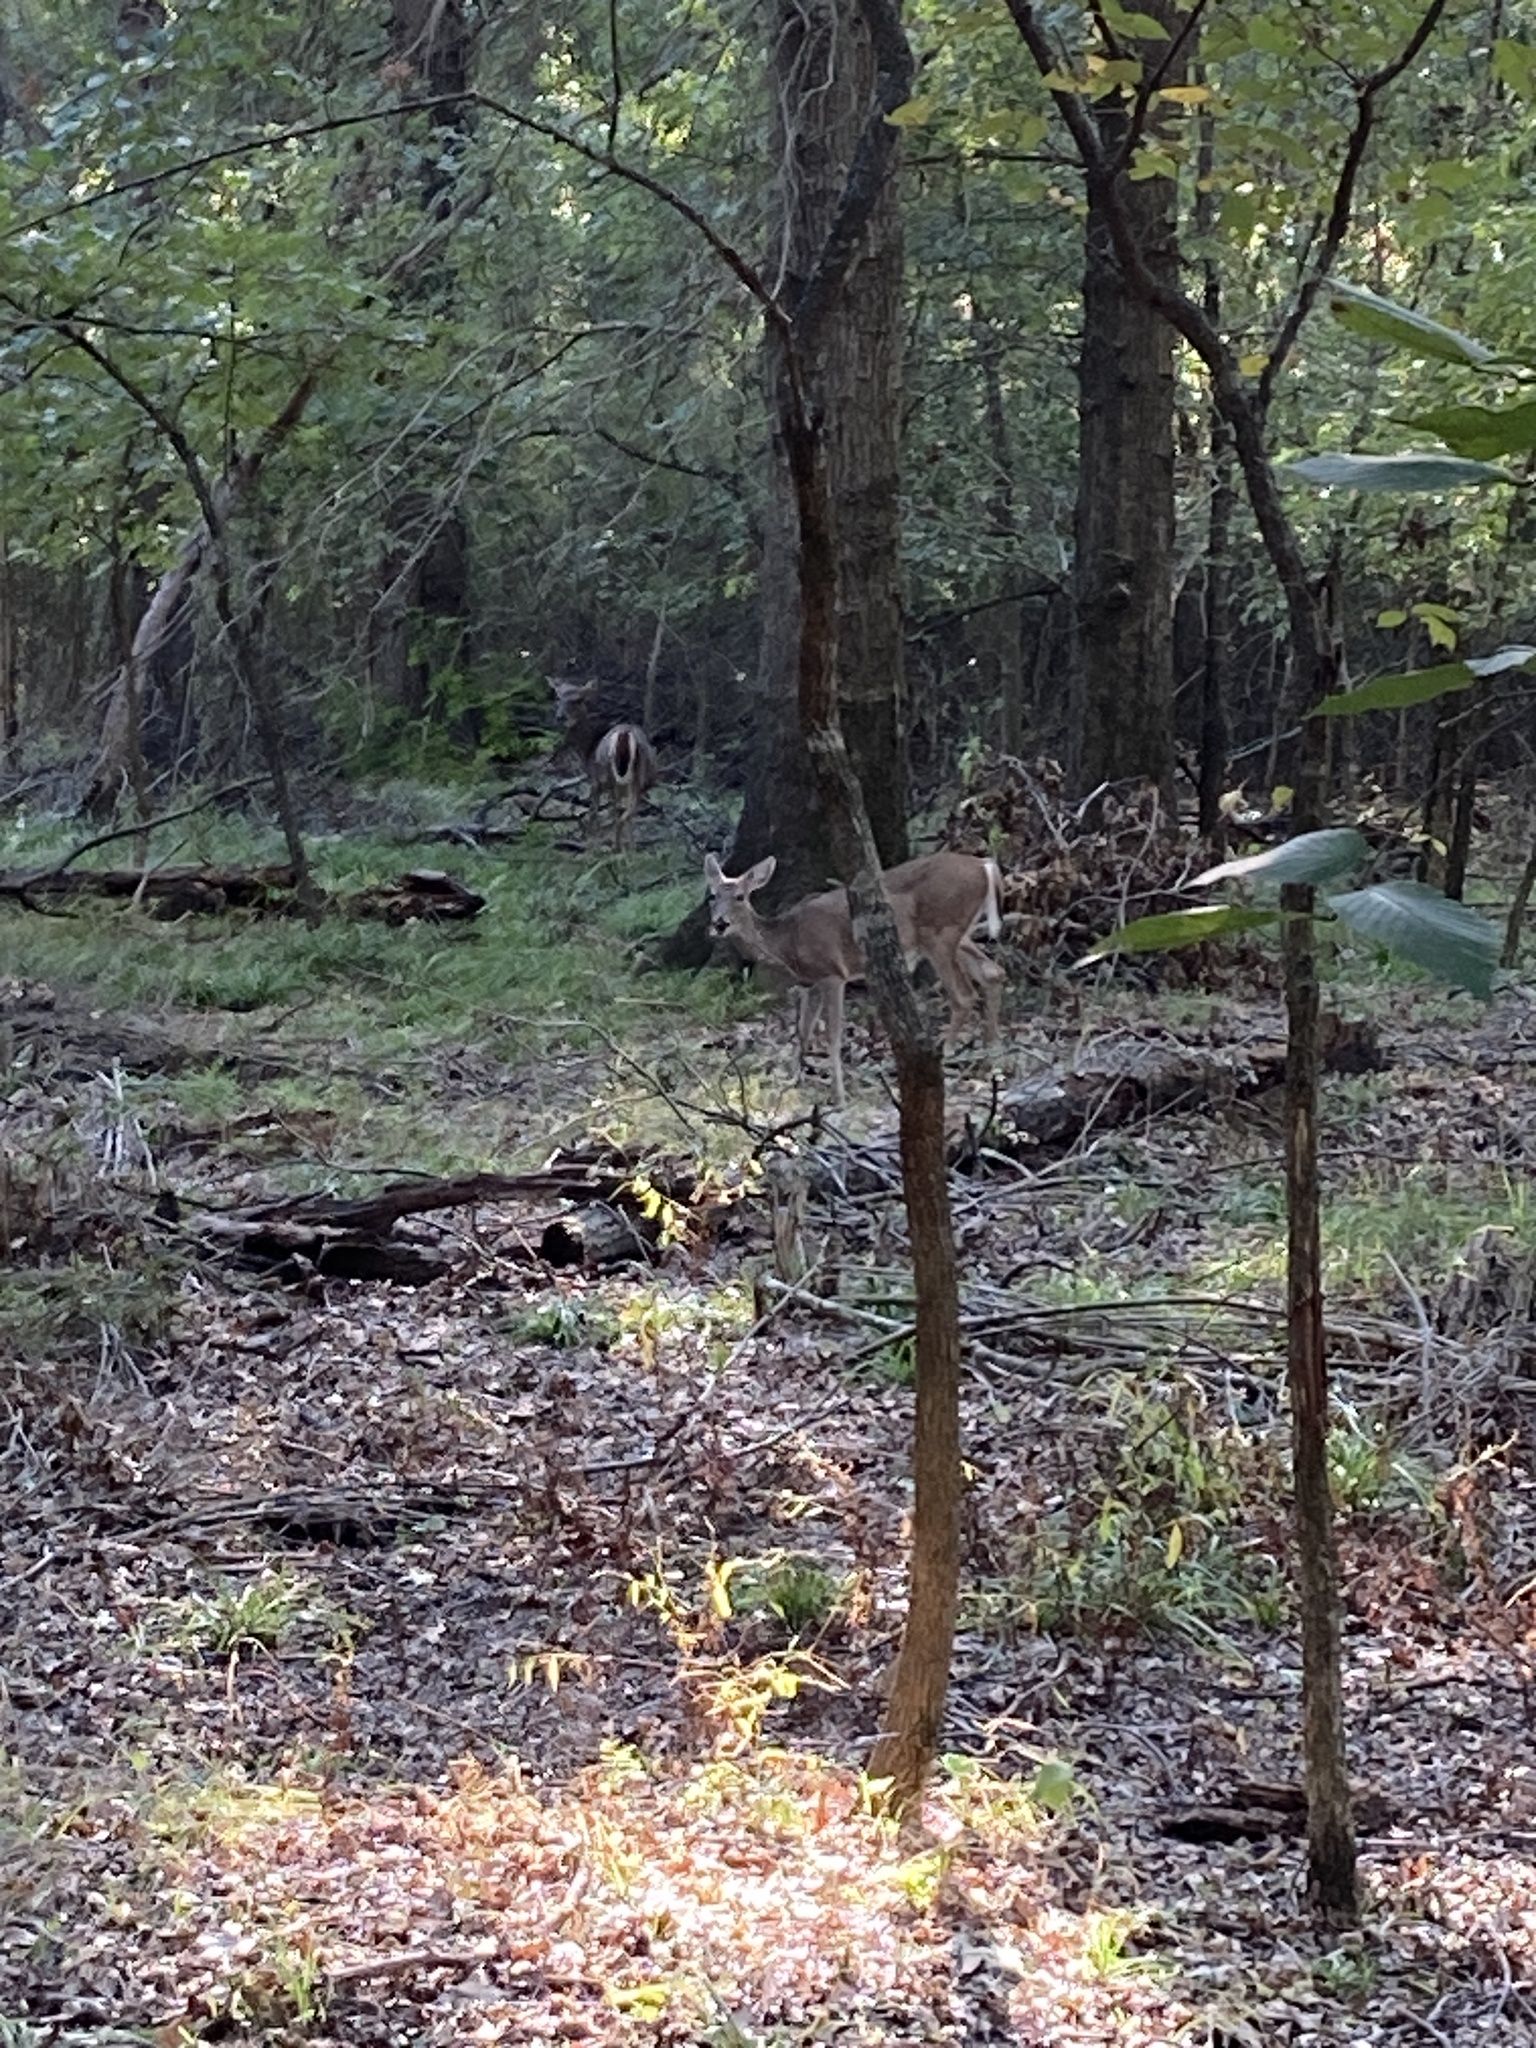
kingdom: Animalia
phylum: Chordata
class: Mammalia
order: Artiodactyla
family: Cervidae
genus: Odocoileus
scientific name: Odocoileus virginianus
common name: White-tailed deer
